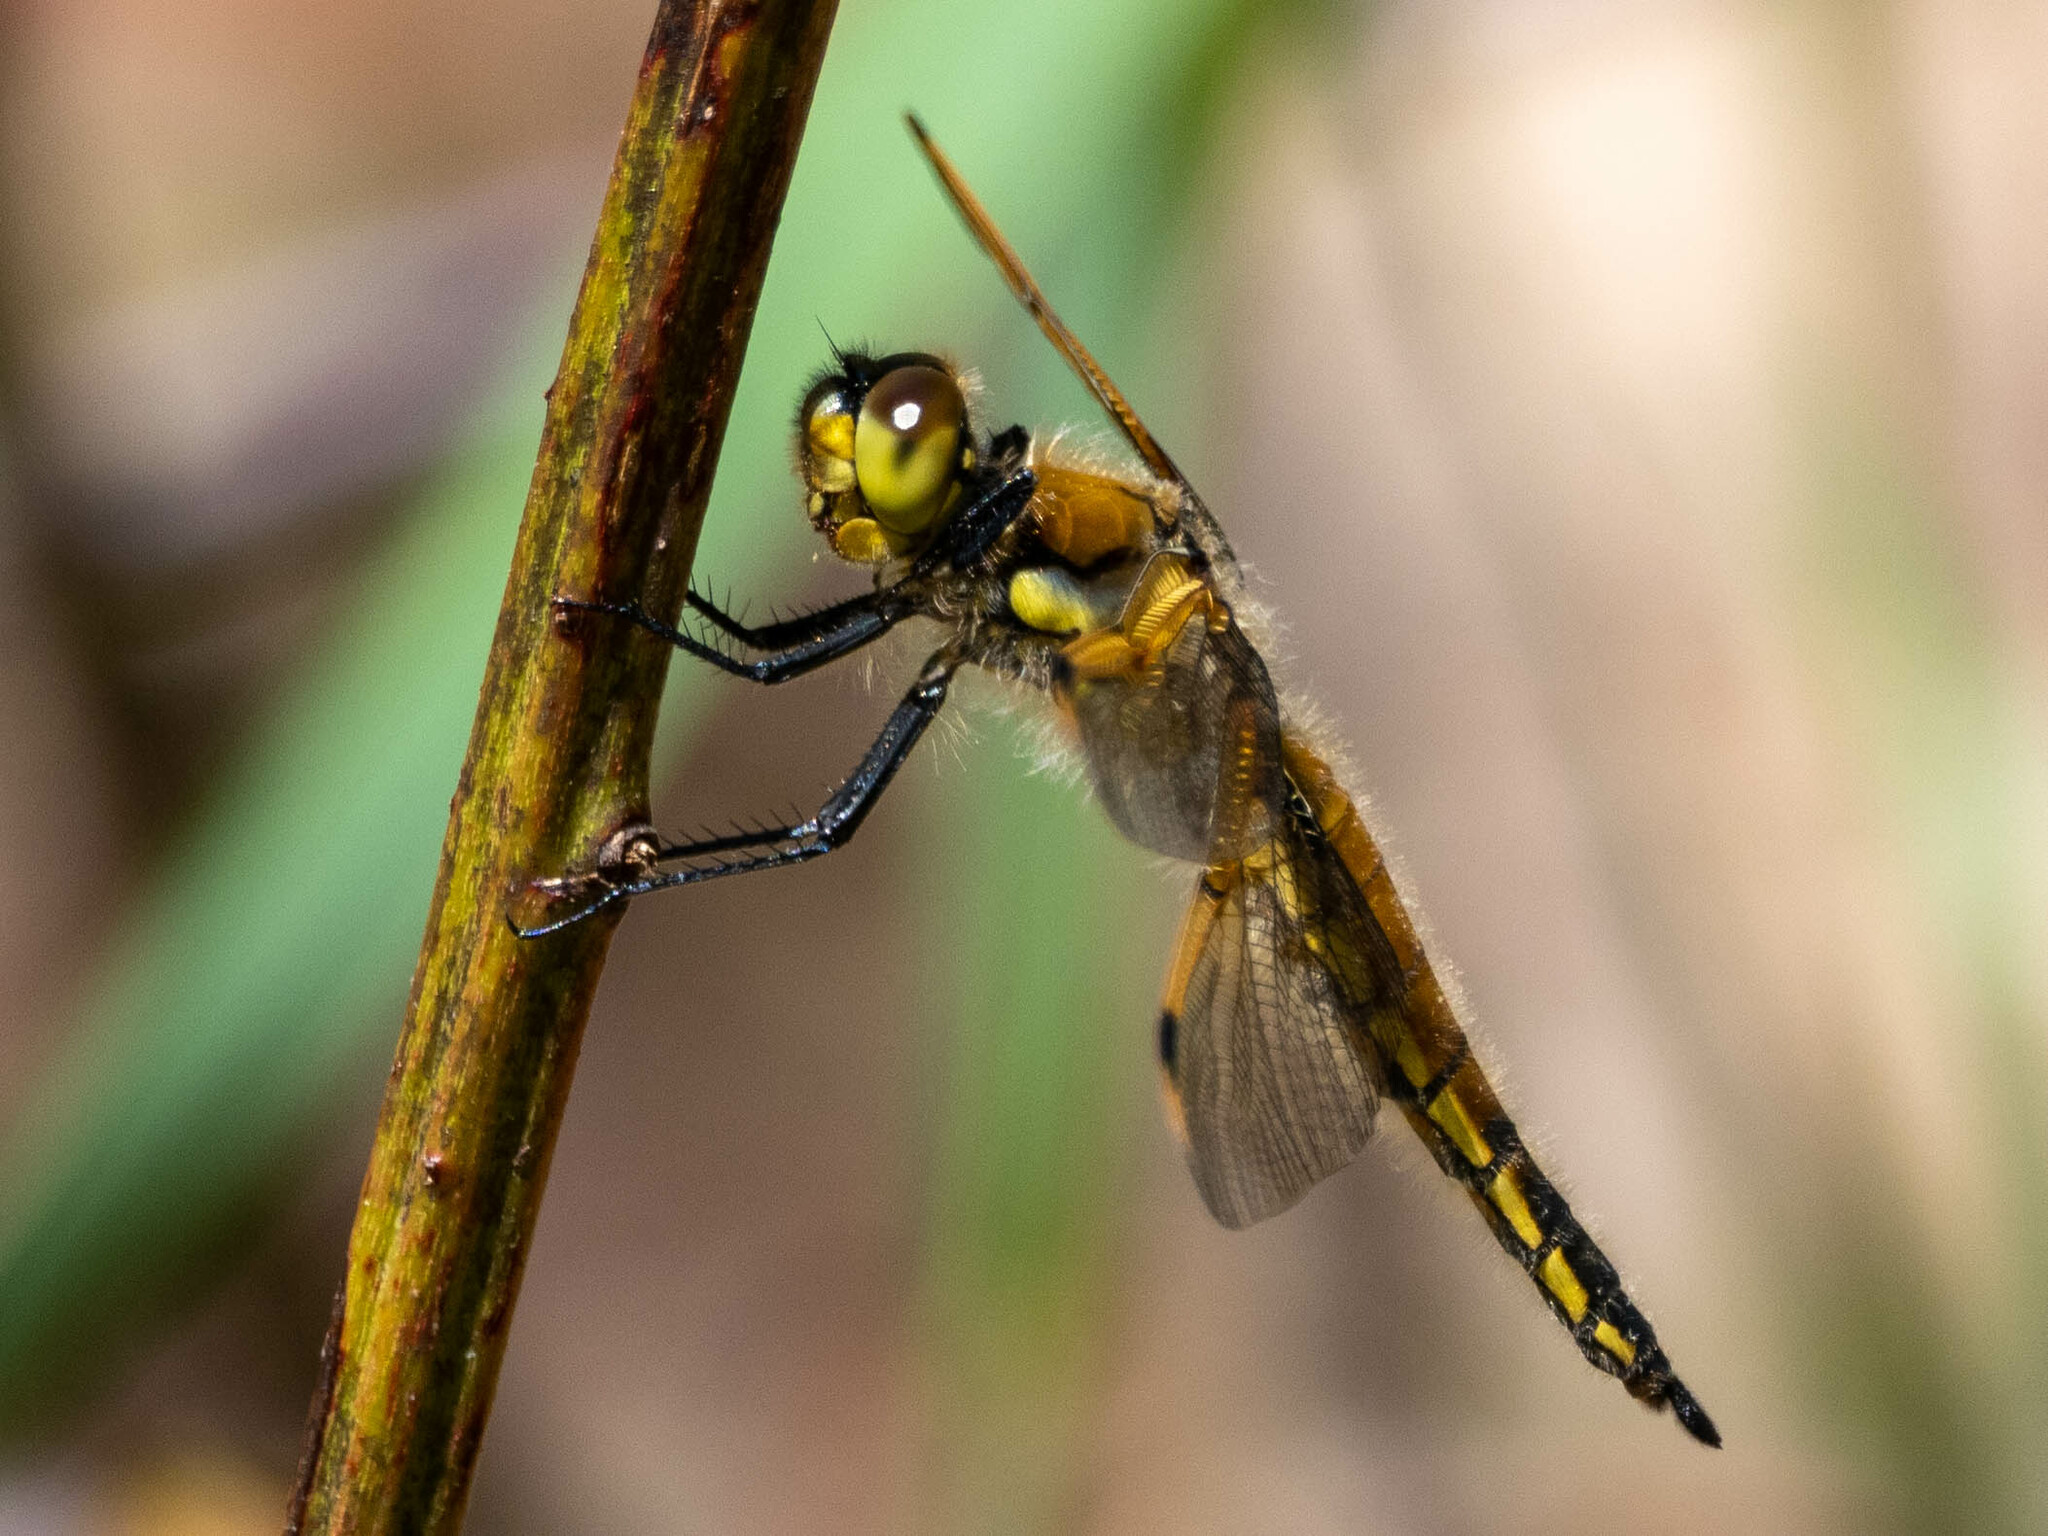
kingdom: Animalia
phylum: Arthropoda
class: Insecta
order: Odonata
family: Libellulidae
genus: Libellula
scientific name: Libellula quadrimaculata
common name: Four-spotted chaser
